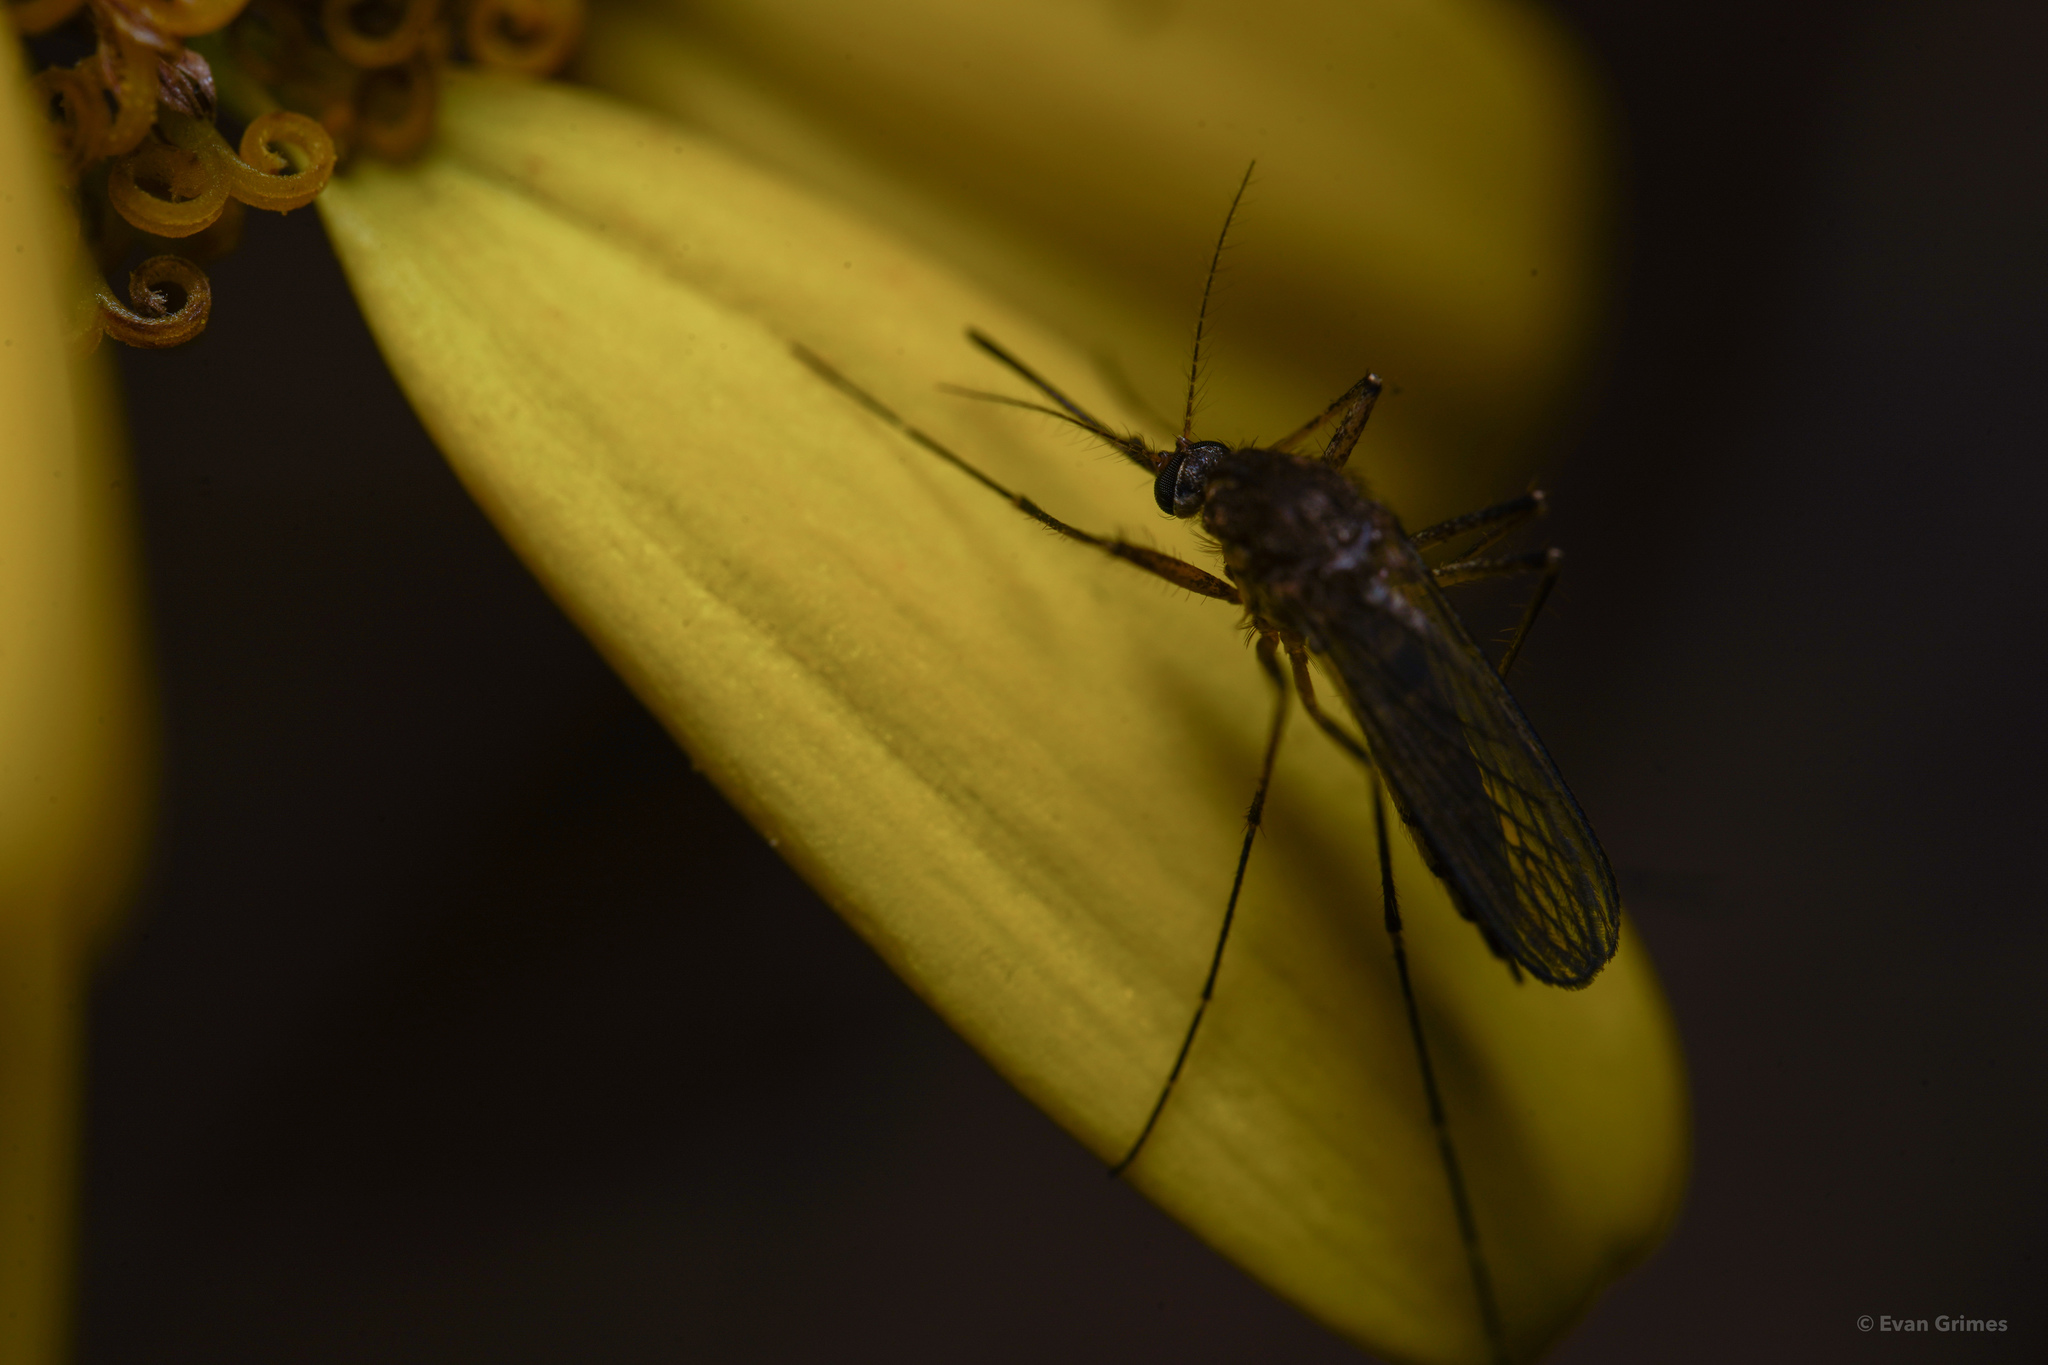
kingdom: Animalia
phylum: Arthropoda
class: Insecta
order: Diptera
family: Culicidae
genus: Aedes
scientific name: Aedes vexans
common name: Inland floodwater mosquito
